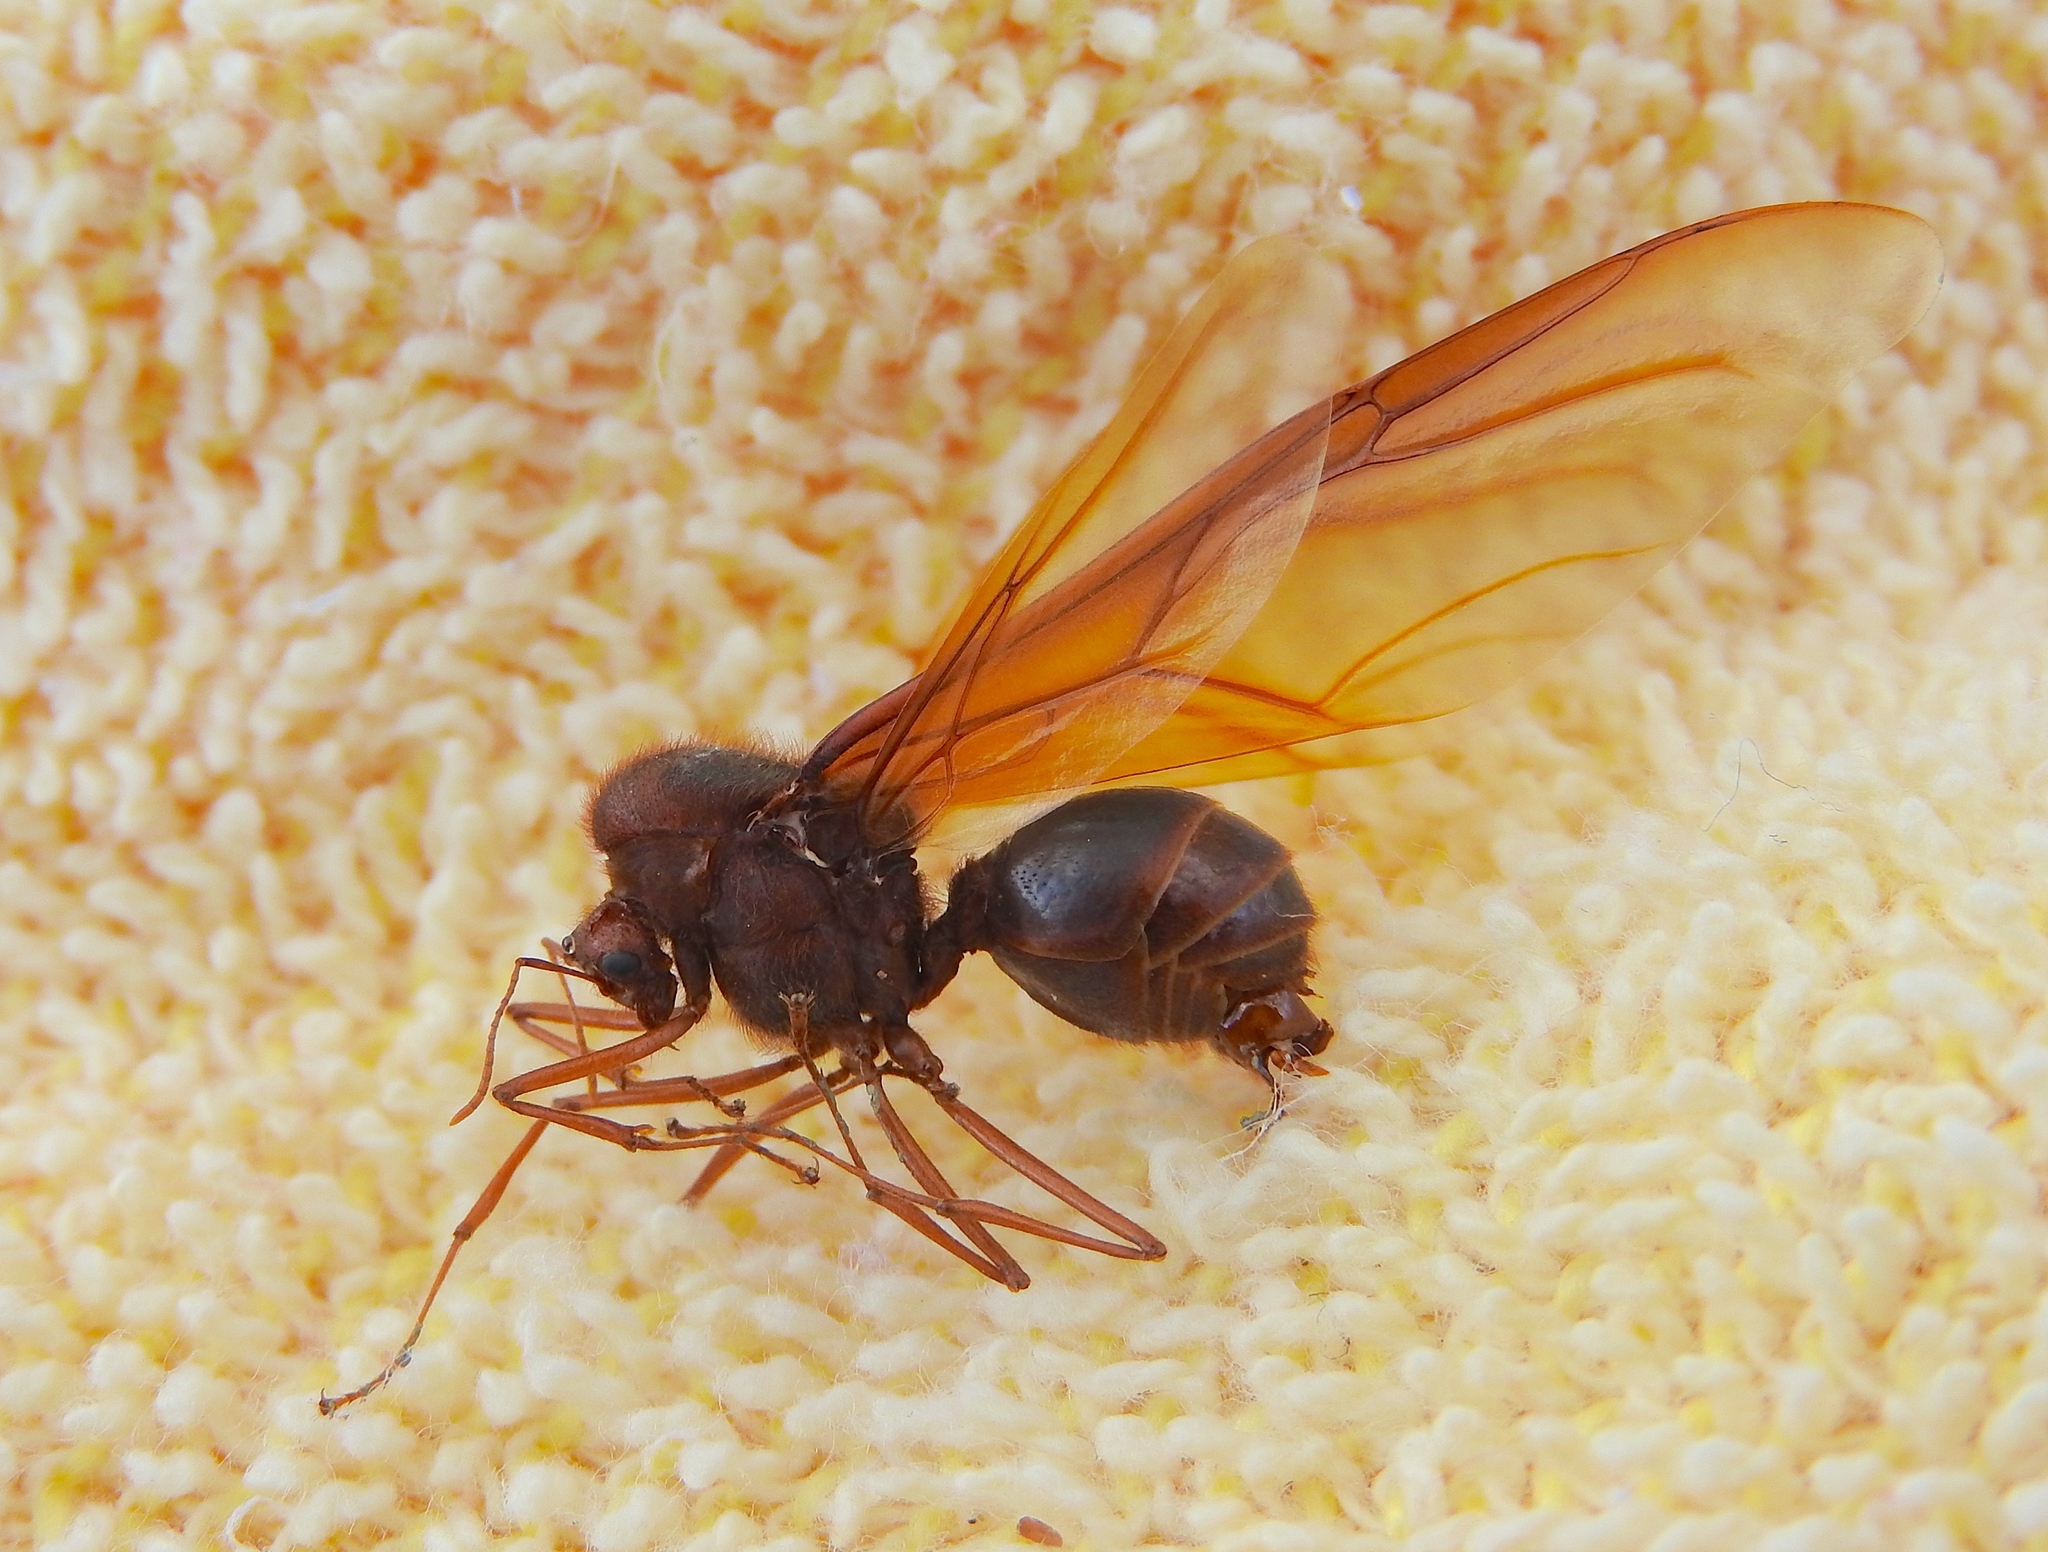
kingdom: Animalia
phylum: Arthropoda
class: Insecta
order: Hymenoptera
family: Formicidae
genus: Atta
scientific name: Atta mexicana
